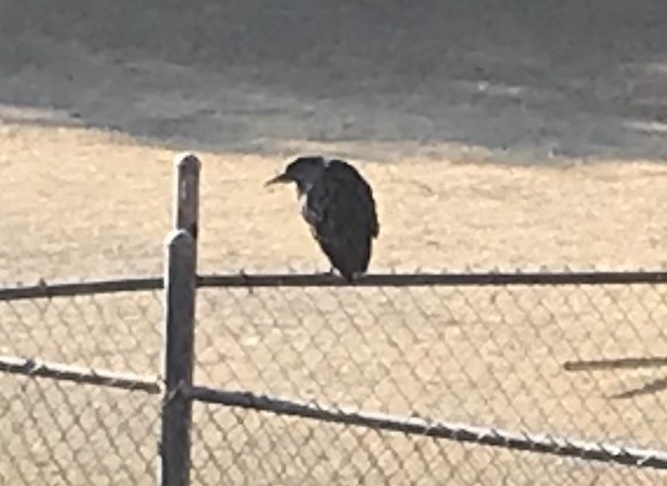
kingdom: Animalia
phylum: Chordata
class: Aves
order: Pelecaniformes
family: Ardeidae
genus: Nycticorax
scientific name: Nycticorax nycticorax
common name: Black-crowned night heron
